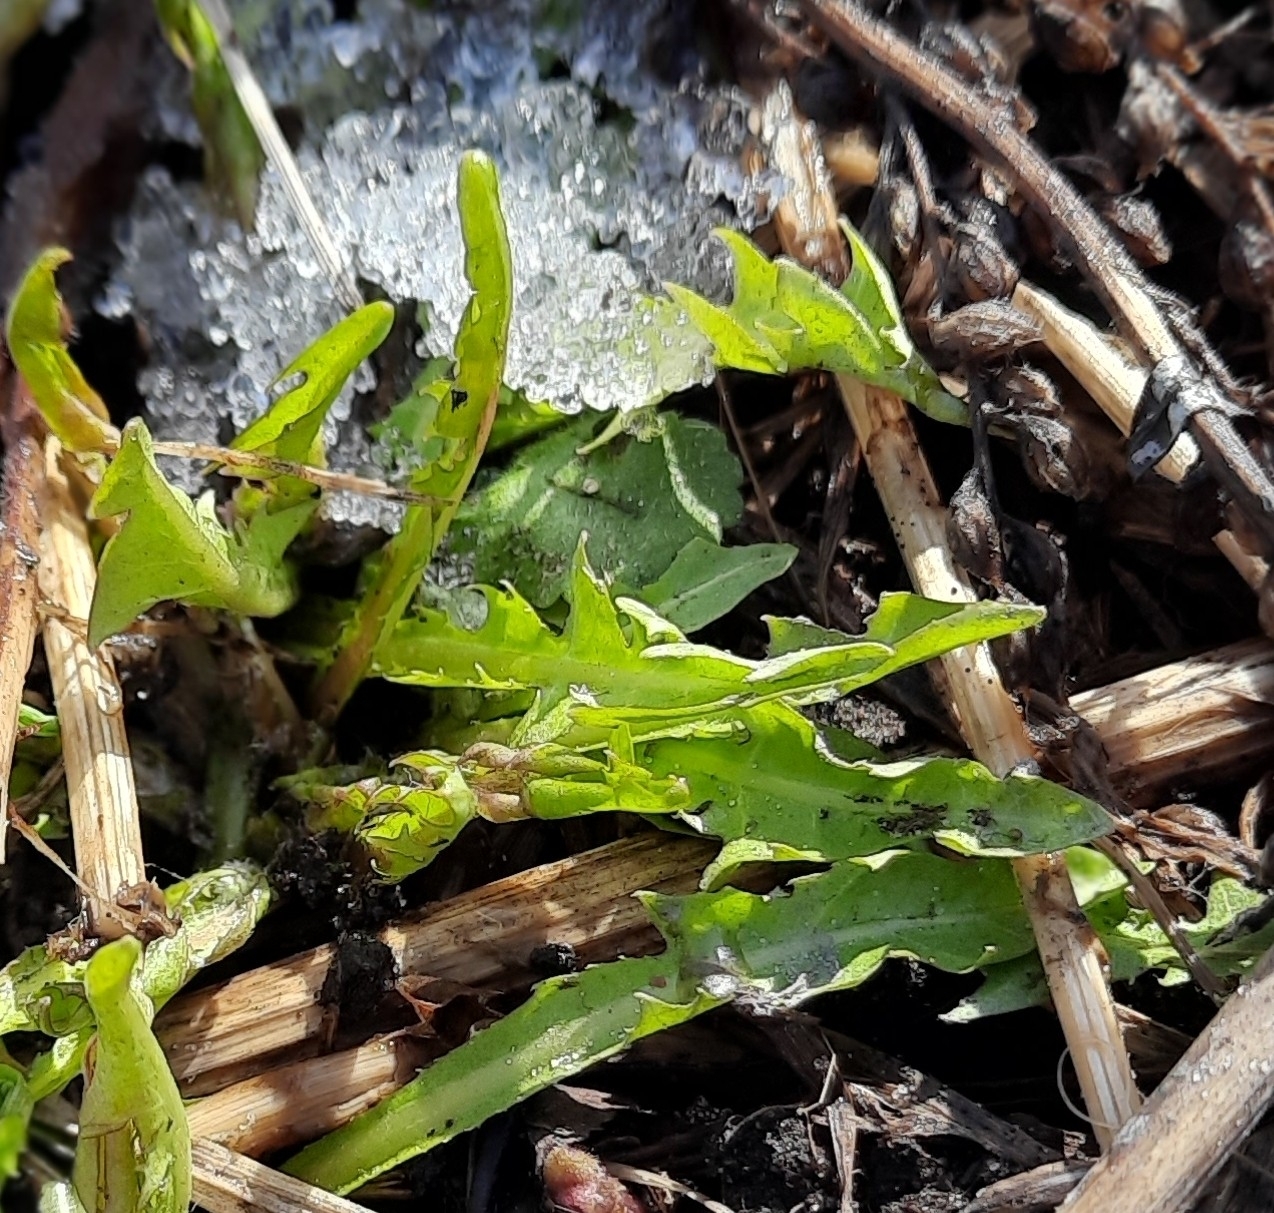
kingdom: Plantae
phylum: Tracheophyta
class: Magnoliopsida
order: Asterales
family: Asteraceae
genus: Taraxacum
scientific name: Taraxacum officinale
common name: Common dandelion
